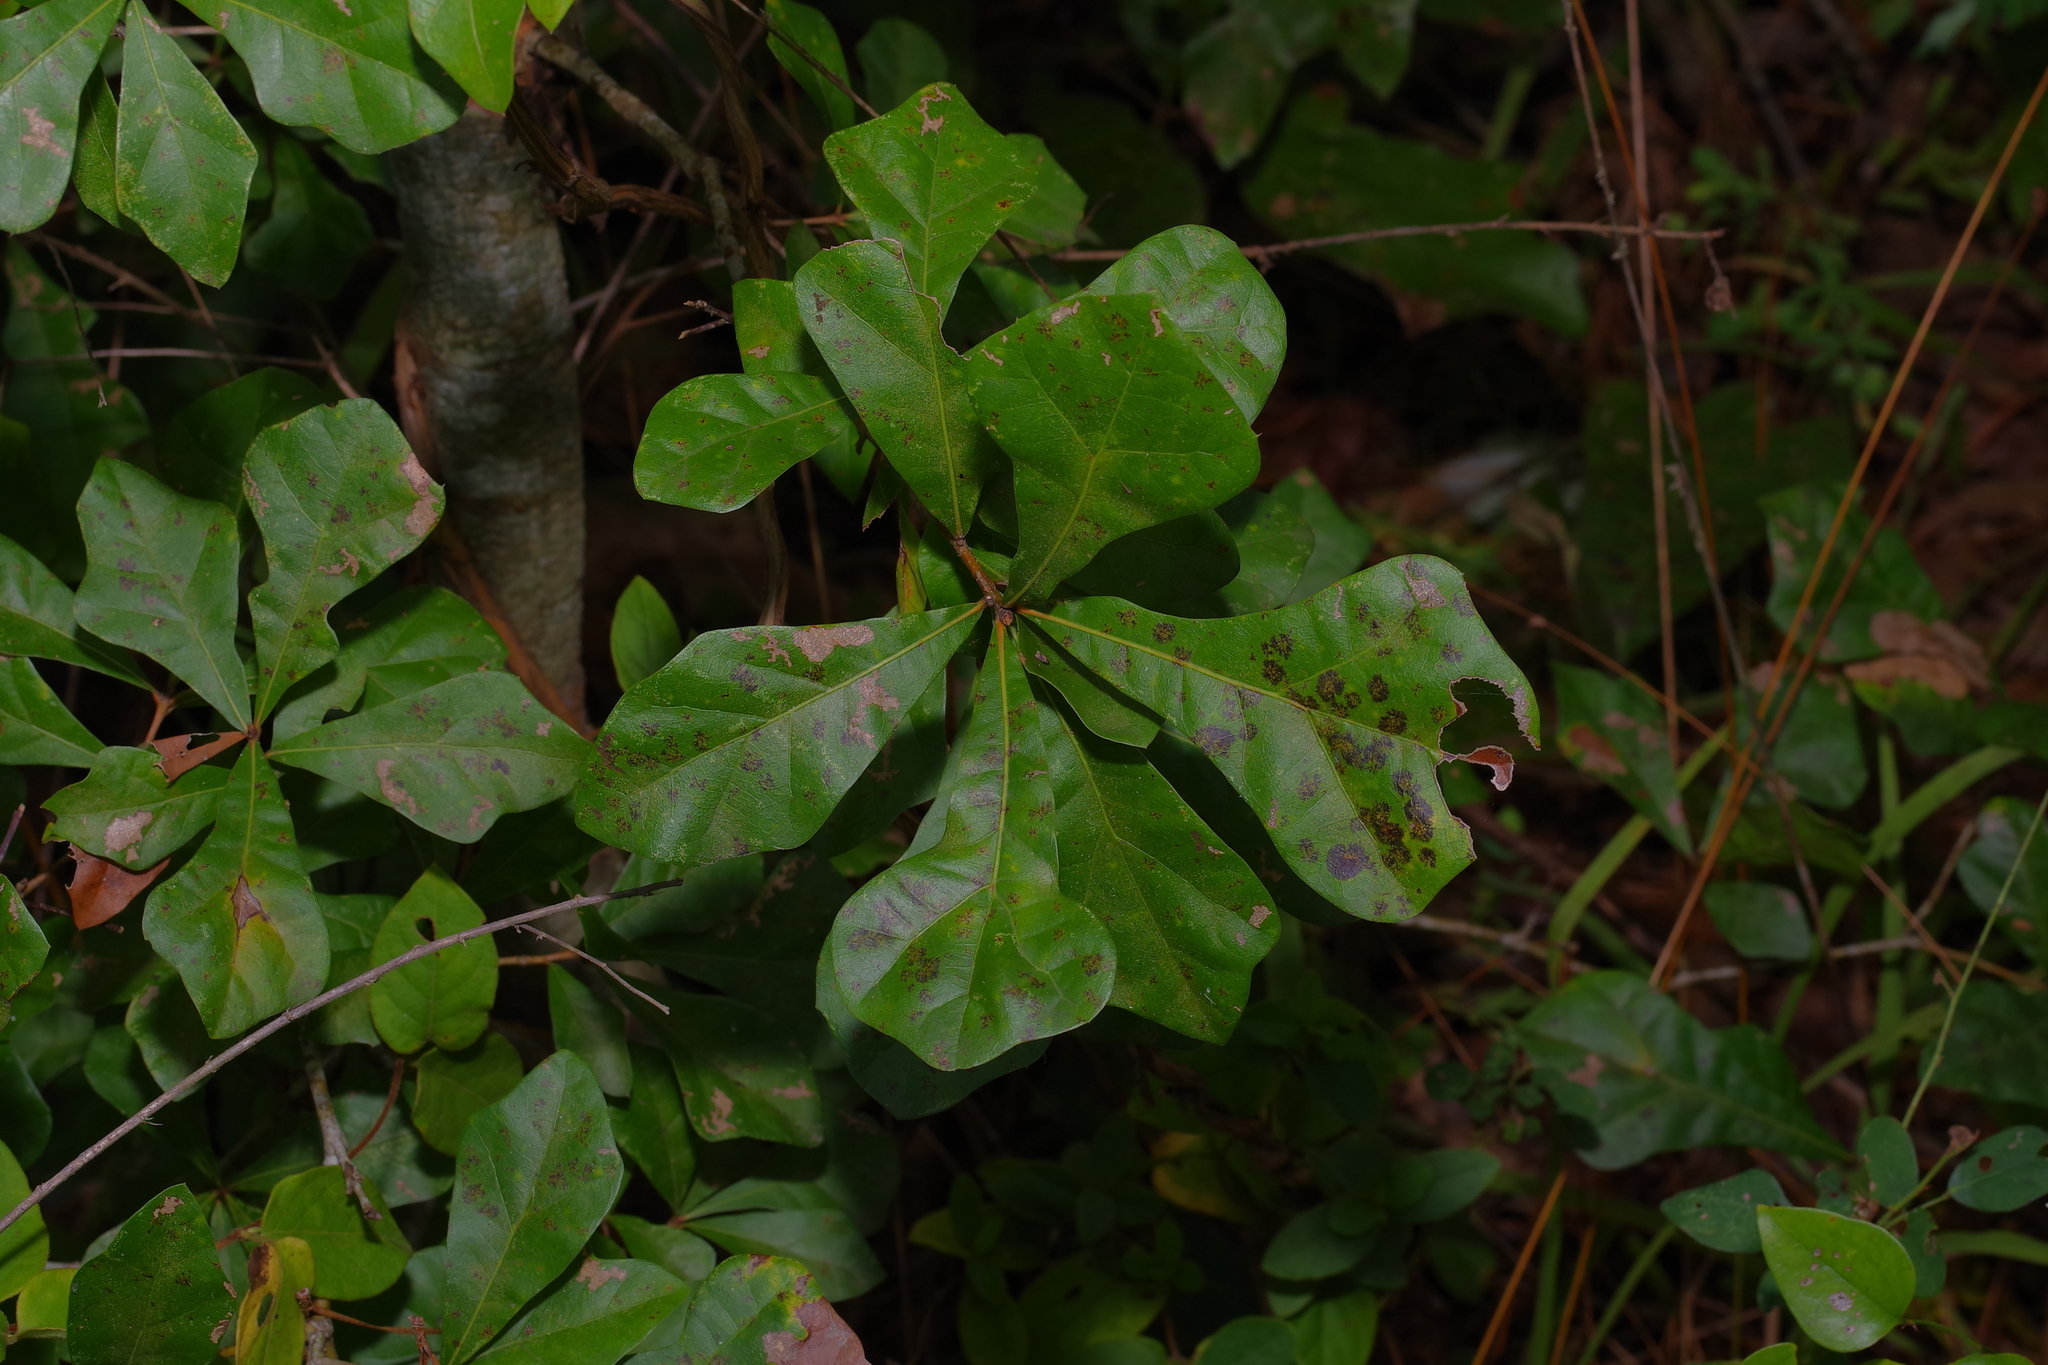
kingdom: Plantae
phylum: Tracheophyta
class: Magnoliopsida
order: Fagales
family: Fagaceae
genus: Quercus
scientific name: Quercus nigra
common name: Water oak
